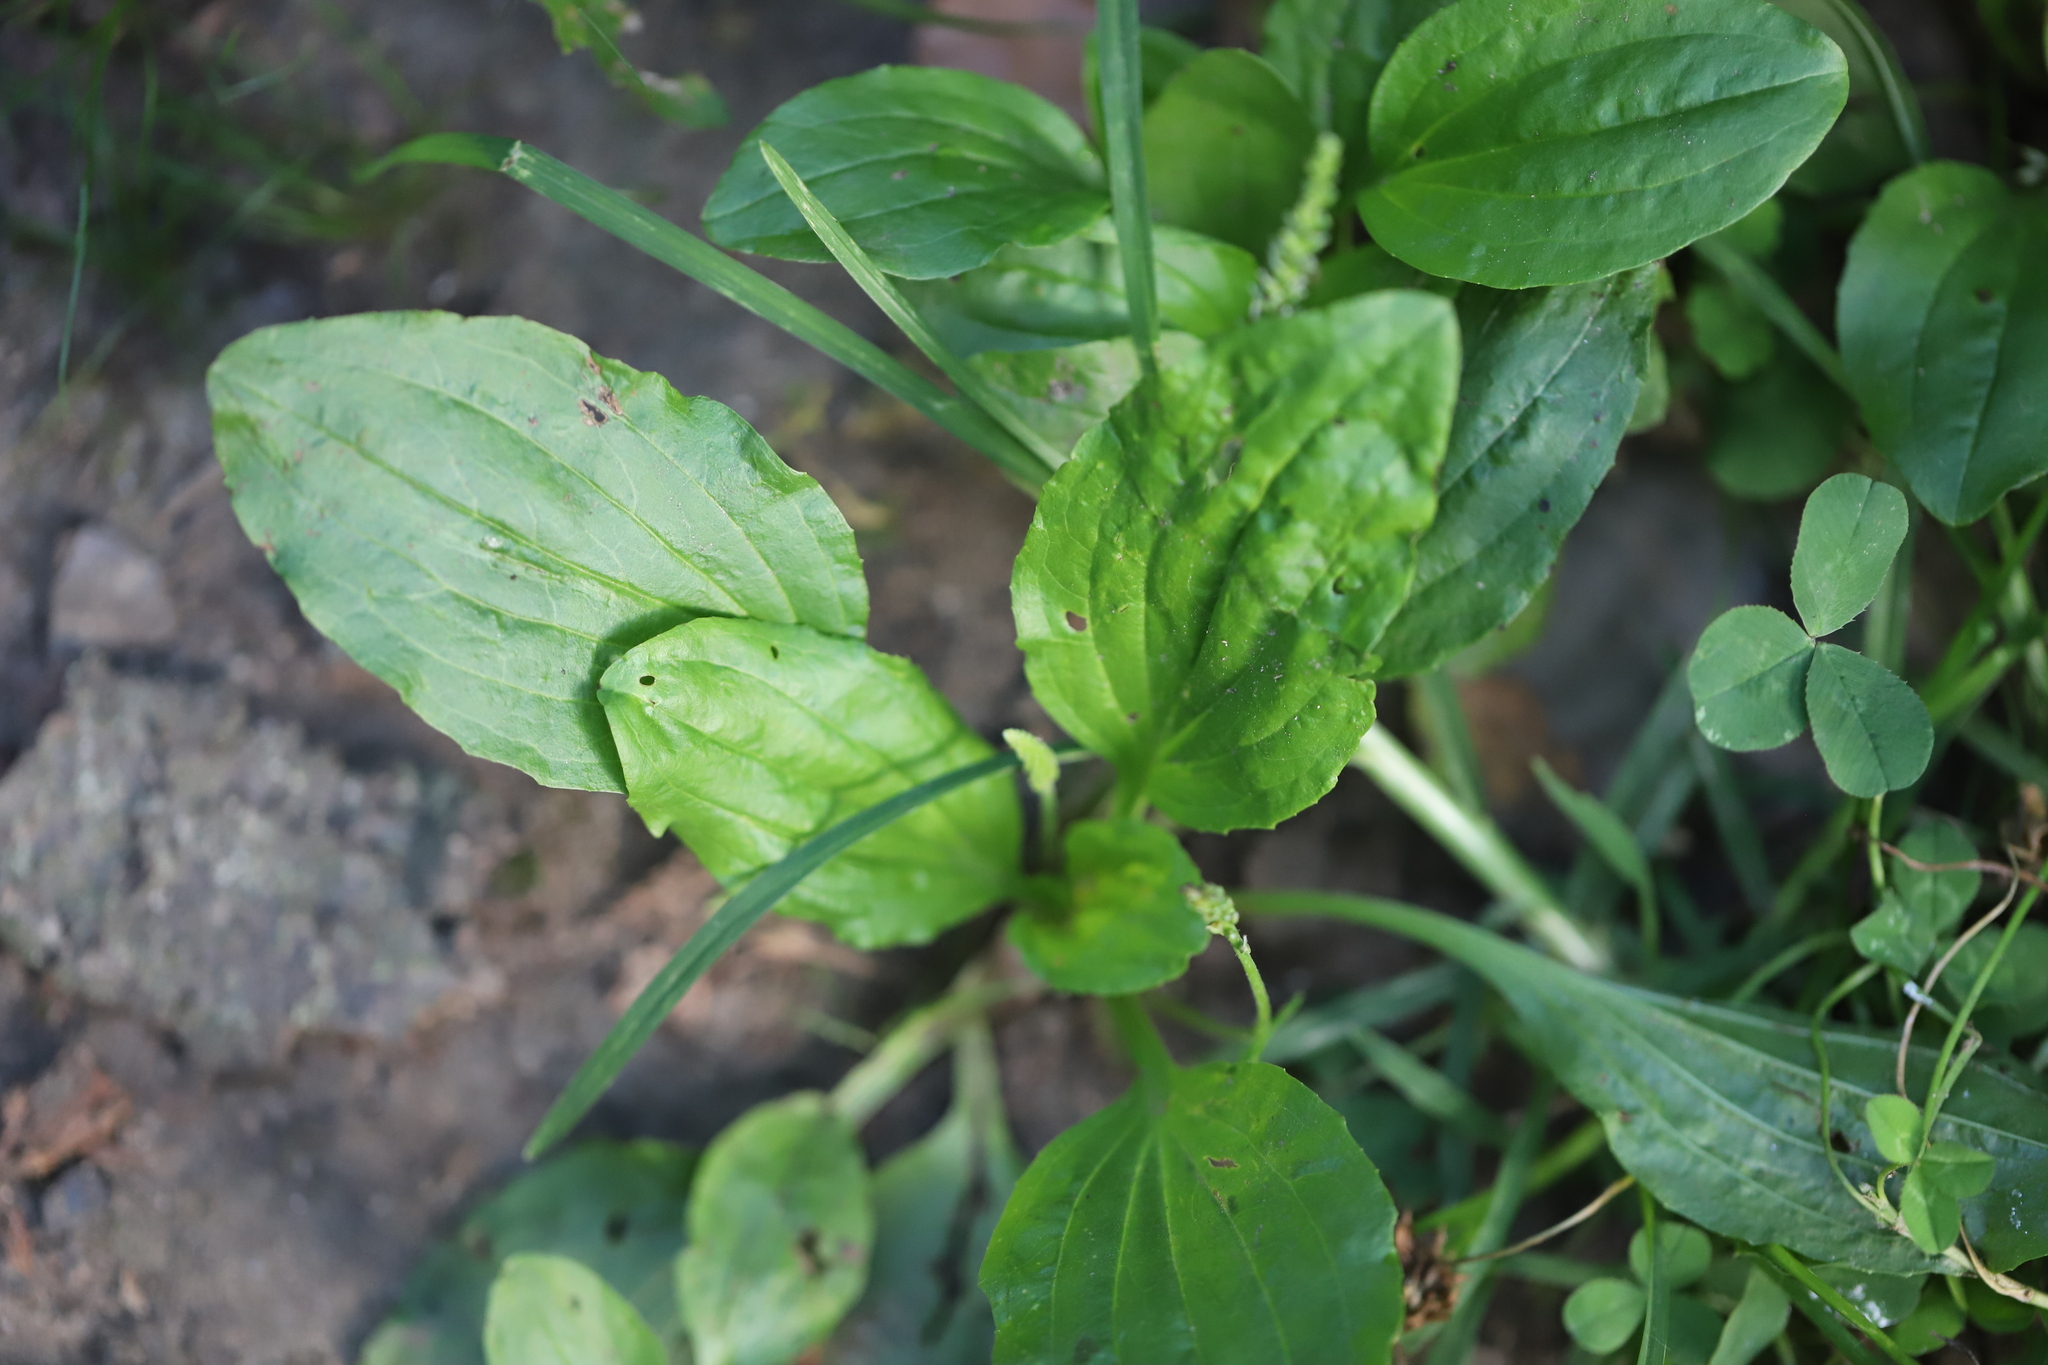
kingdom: Plantae
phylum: Tracheophyta
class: Magnoliopsida
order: Lamiales
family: Plantaginaceae
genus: Plantago
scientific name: Plantago rugelii
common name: American plantain
